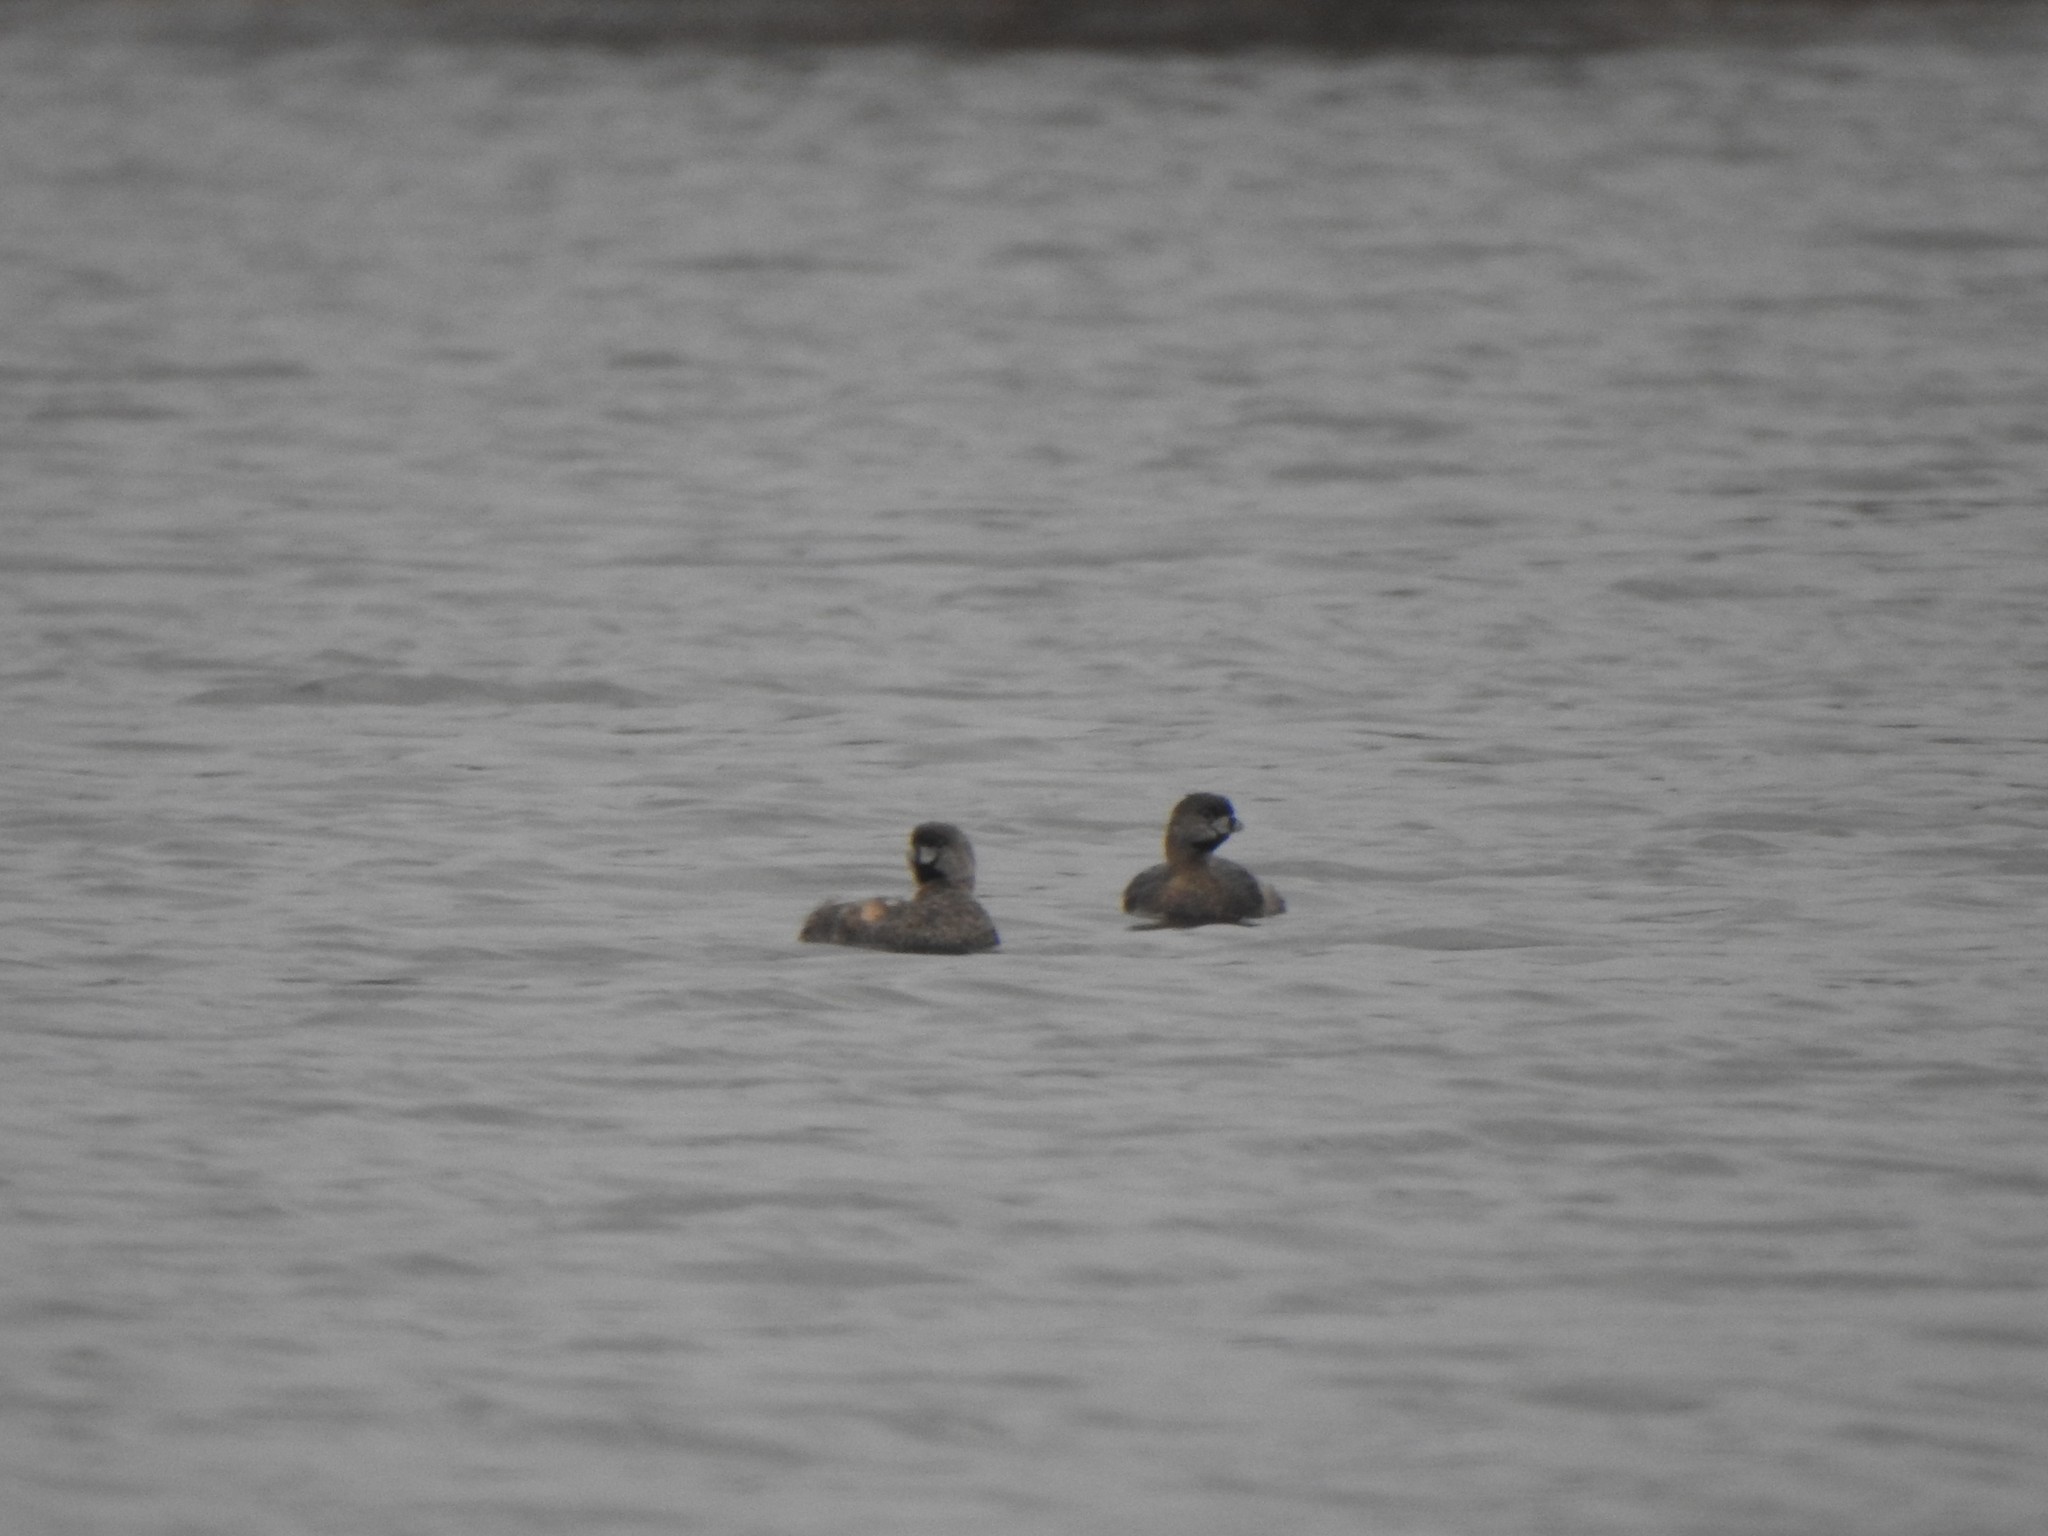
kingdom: Animalia
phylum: Chordata
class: Aves
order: Podicipediformes
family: Podicipedidae
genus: Podilymbus
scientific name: Podilymbus podiceps
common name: Pied-billed grebe
